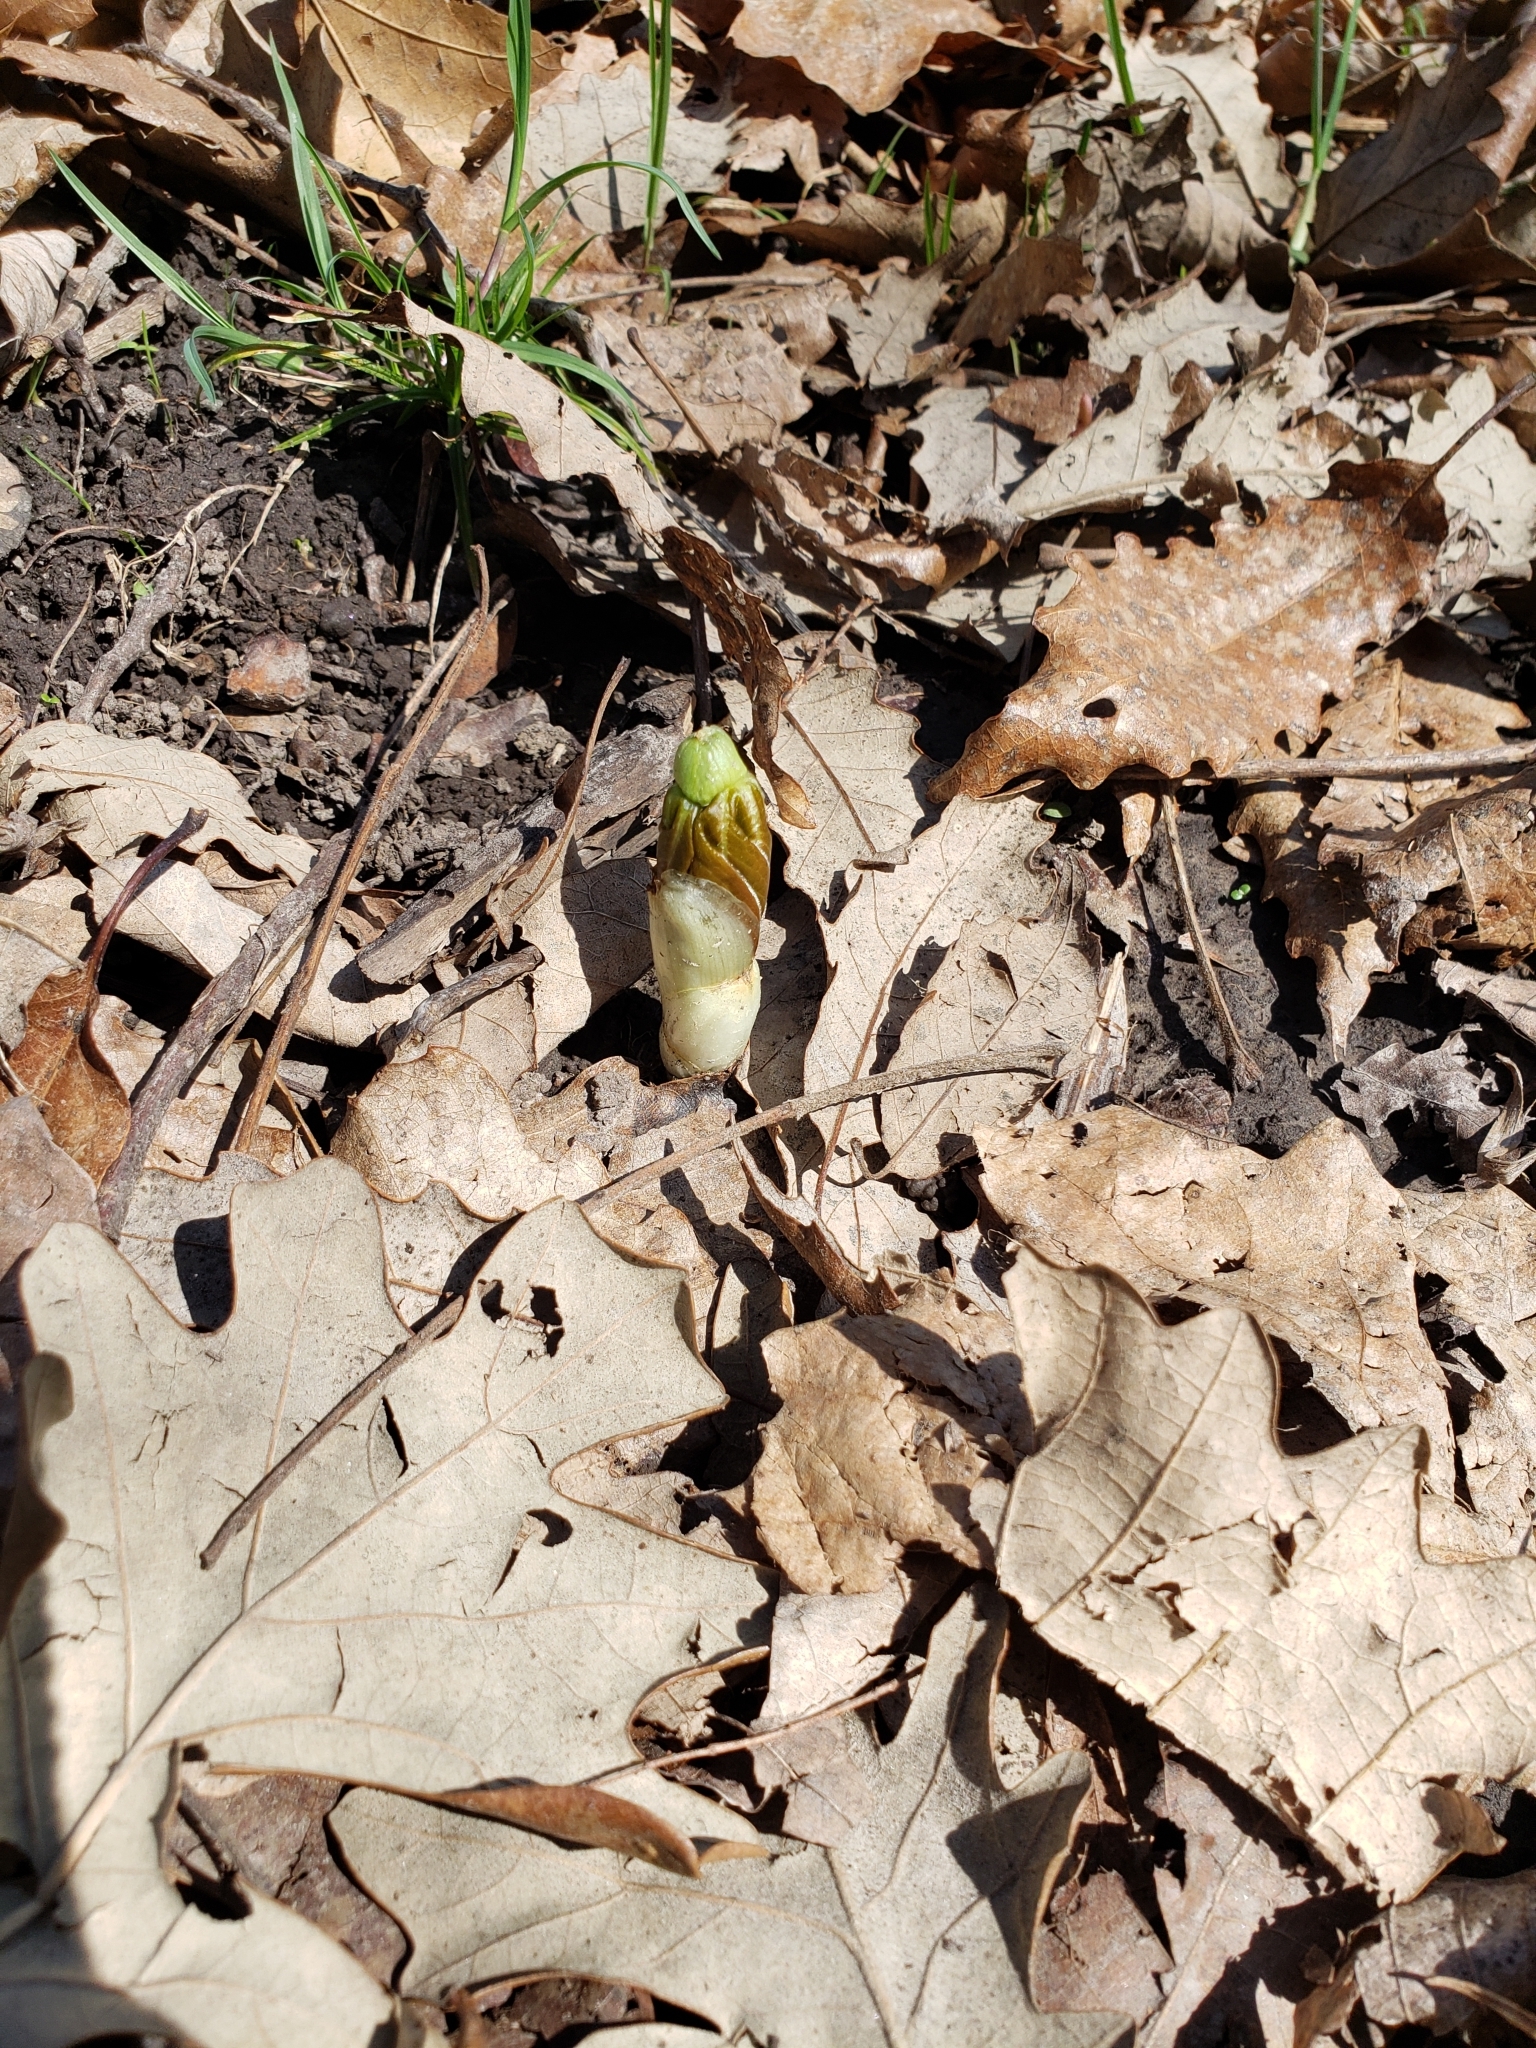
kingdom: Plantae
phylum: Tracheophyta
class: Magnoliopsida
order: Ranunculales
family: Berberidaceae
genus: Podophyllum
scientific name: Podophyllum peltatum
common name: Wild mandrake
